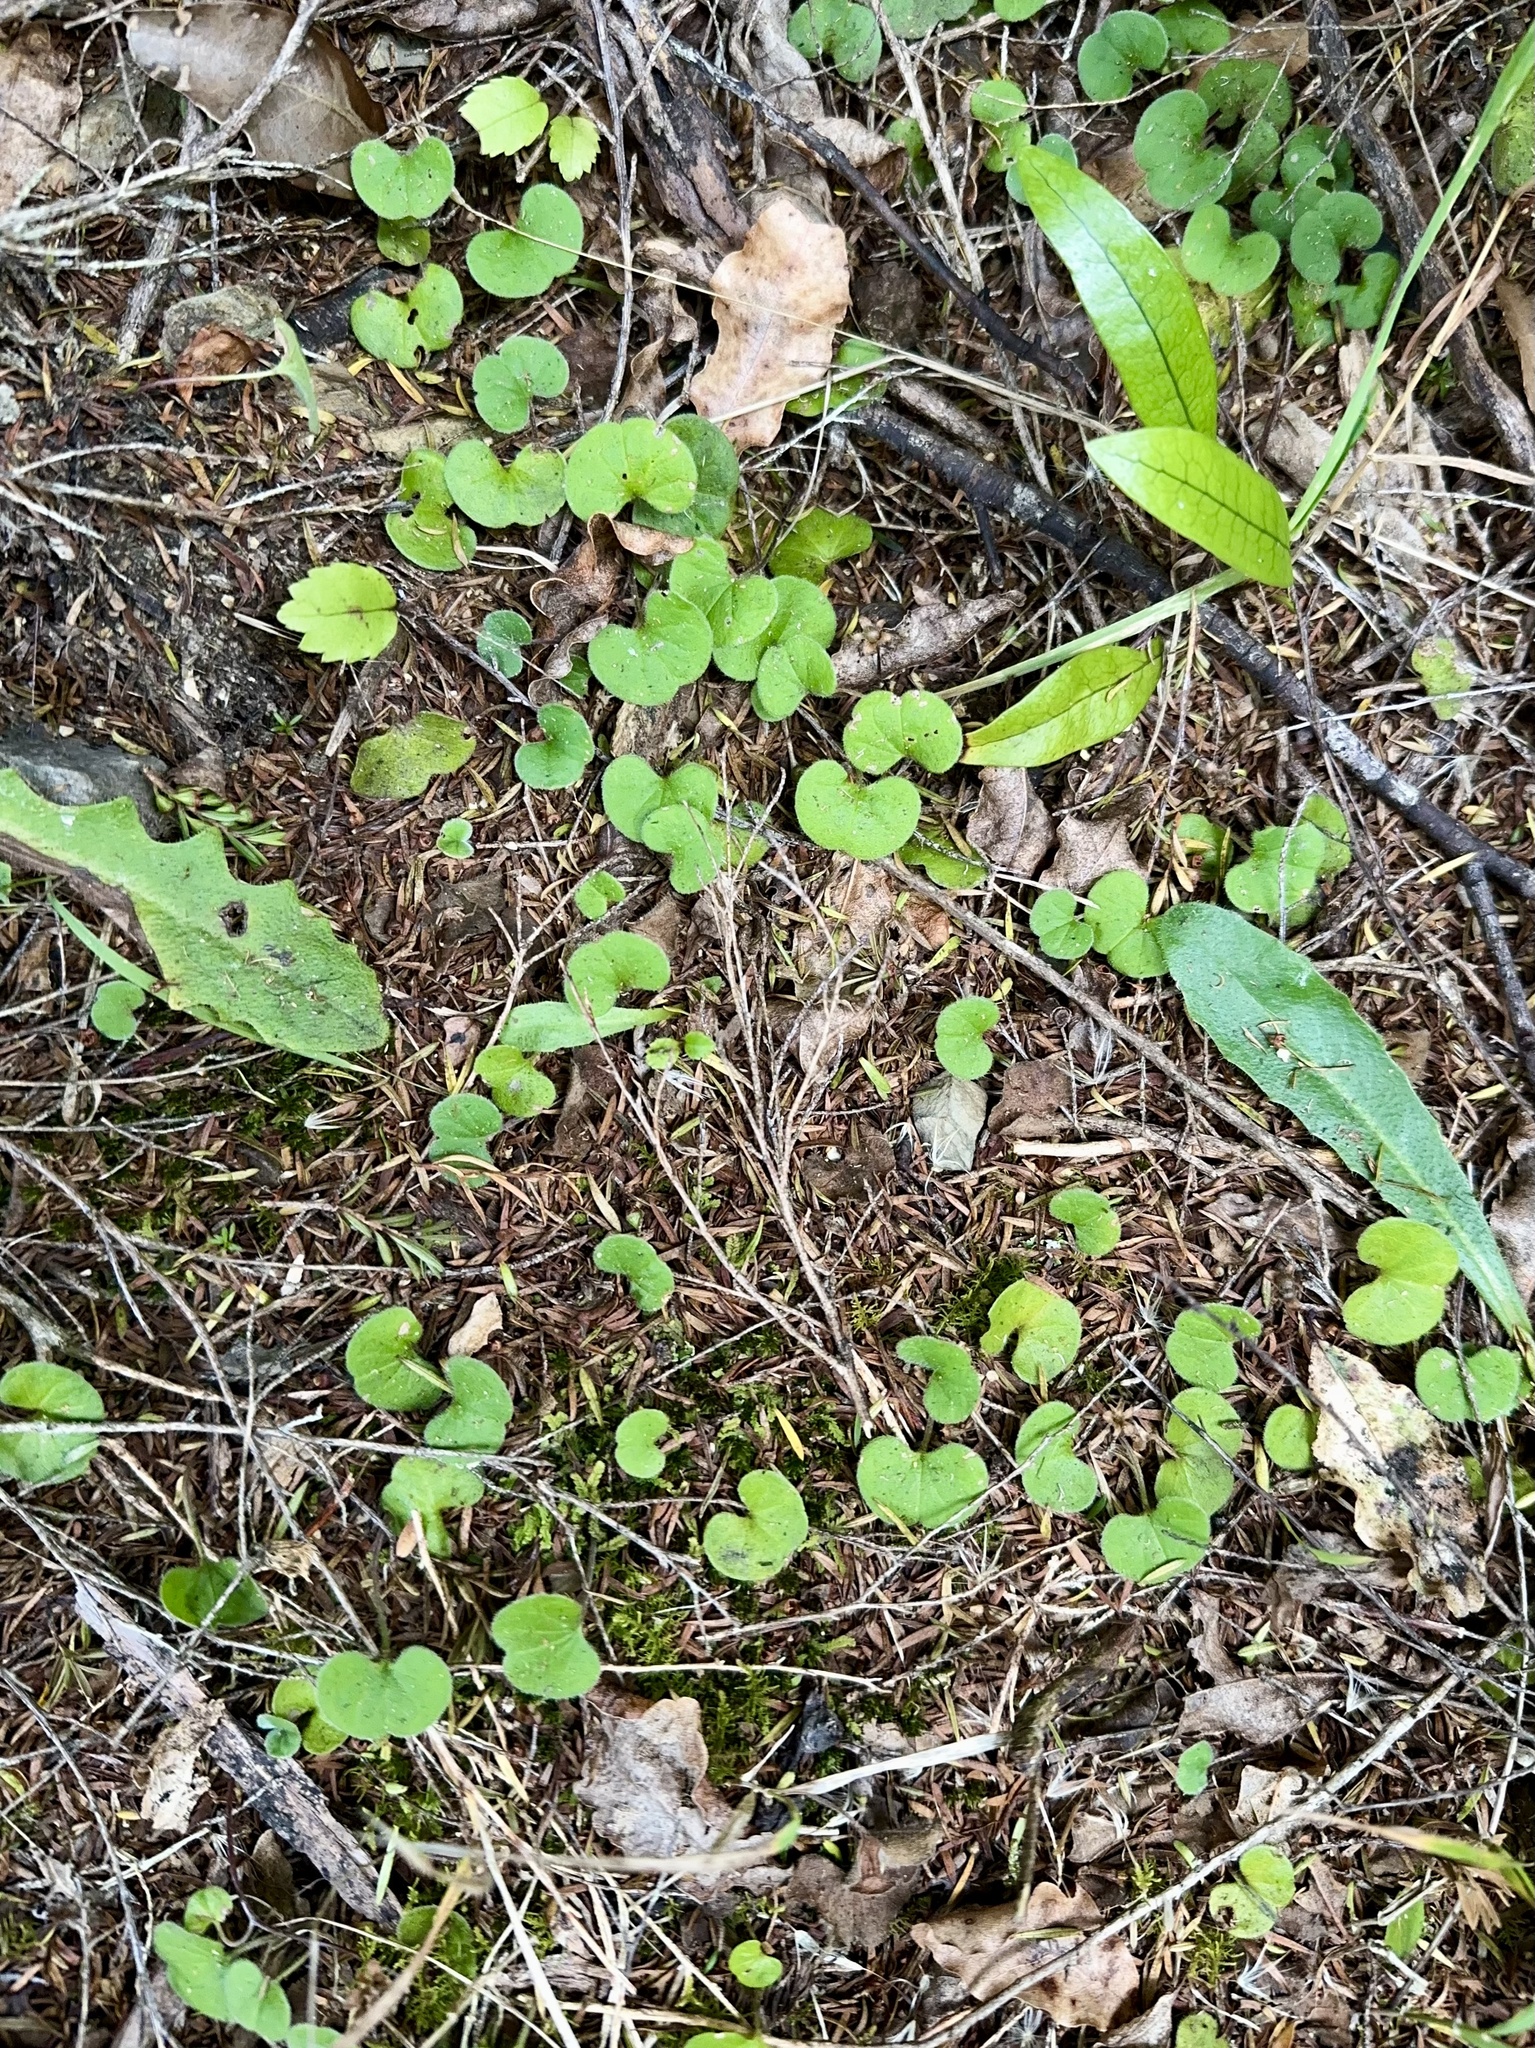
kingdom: Plantae
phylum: Tracheophyta
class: Magnoliopsida
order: Solanales
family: Convolvulaceae
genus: Dichondra
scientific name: Dichondra repens
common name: Kidneyweed
